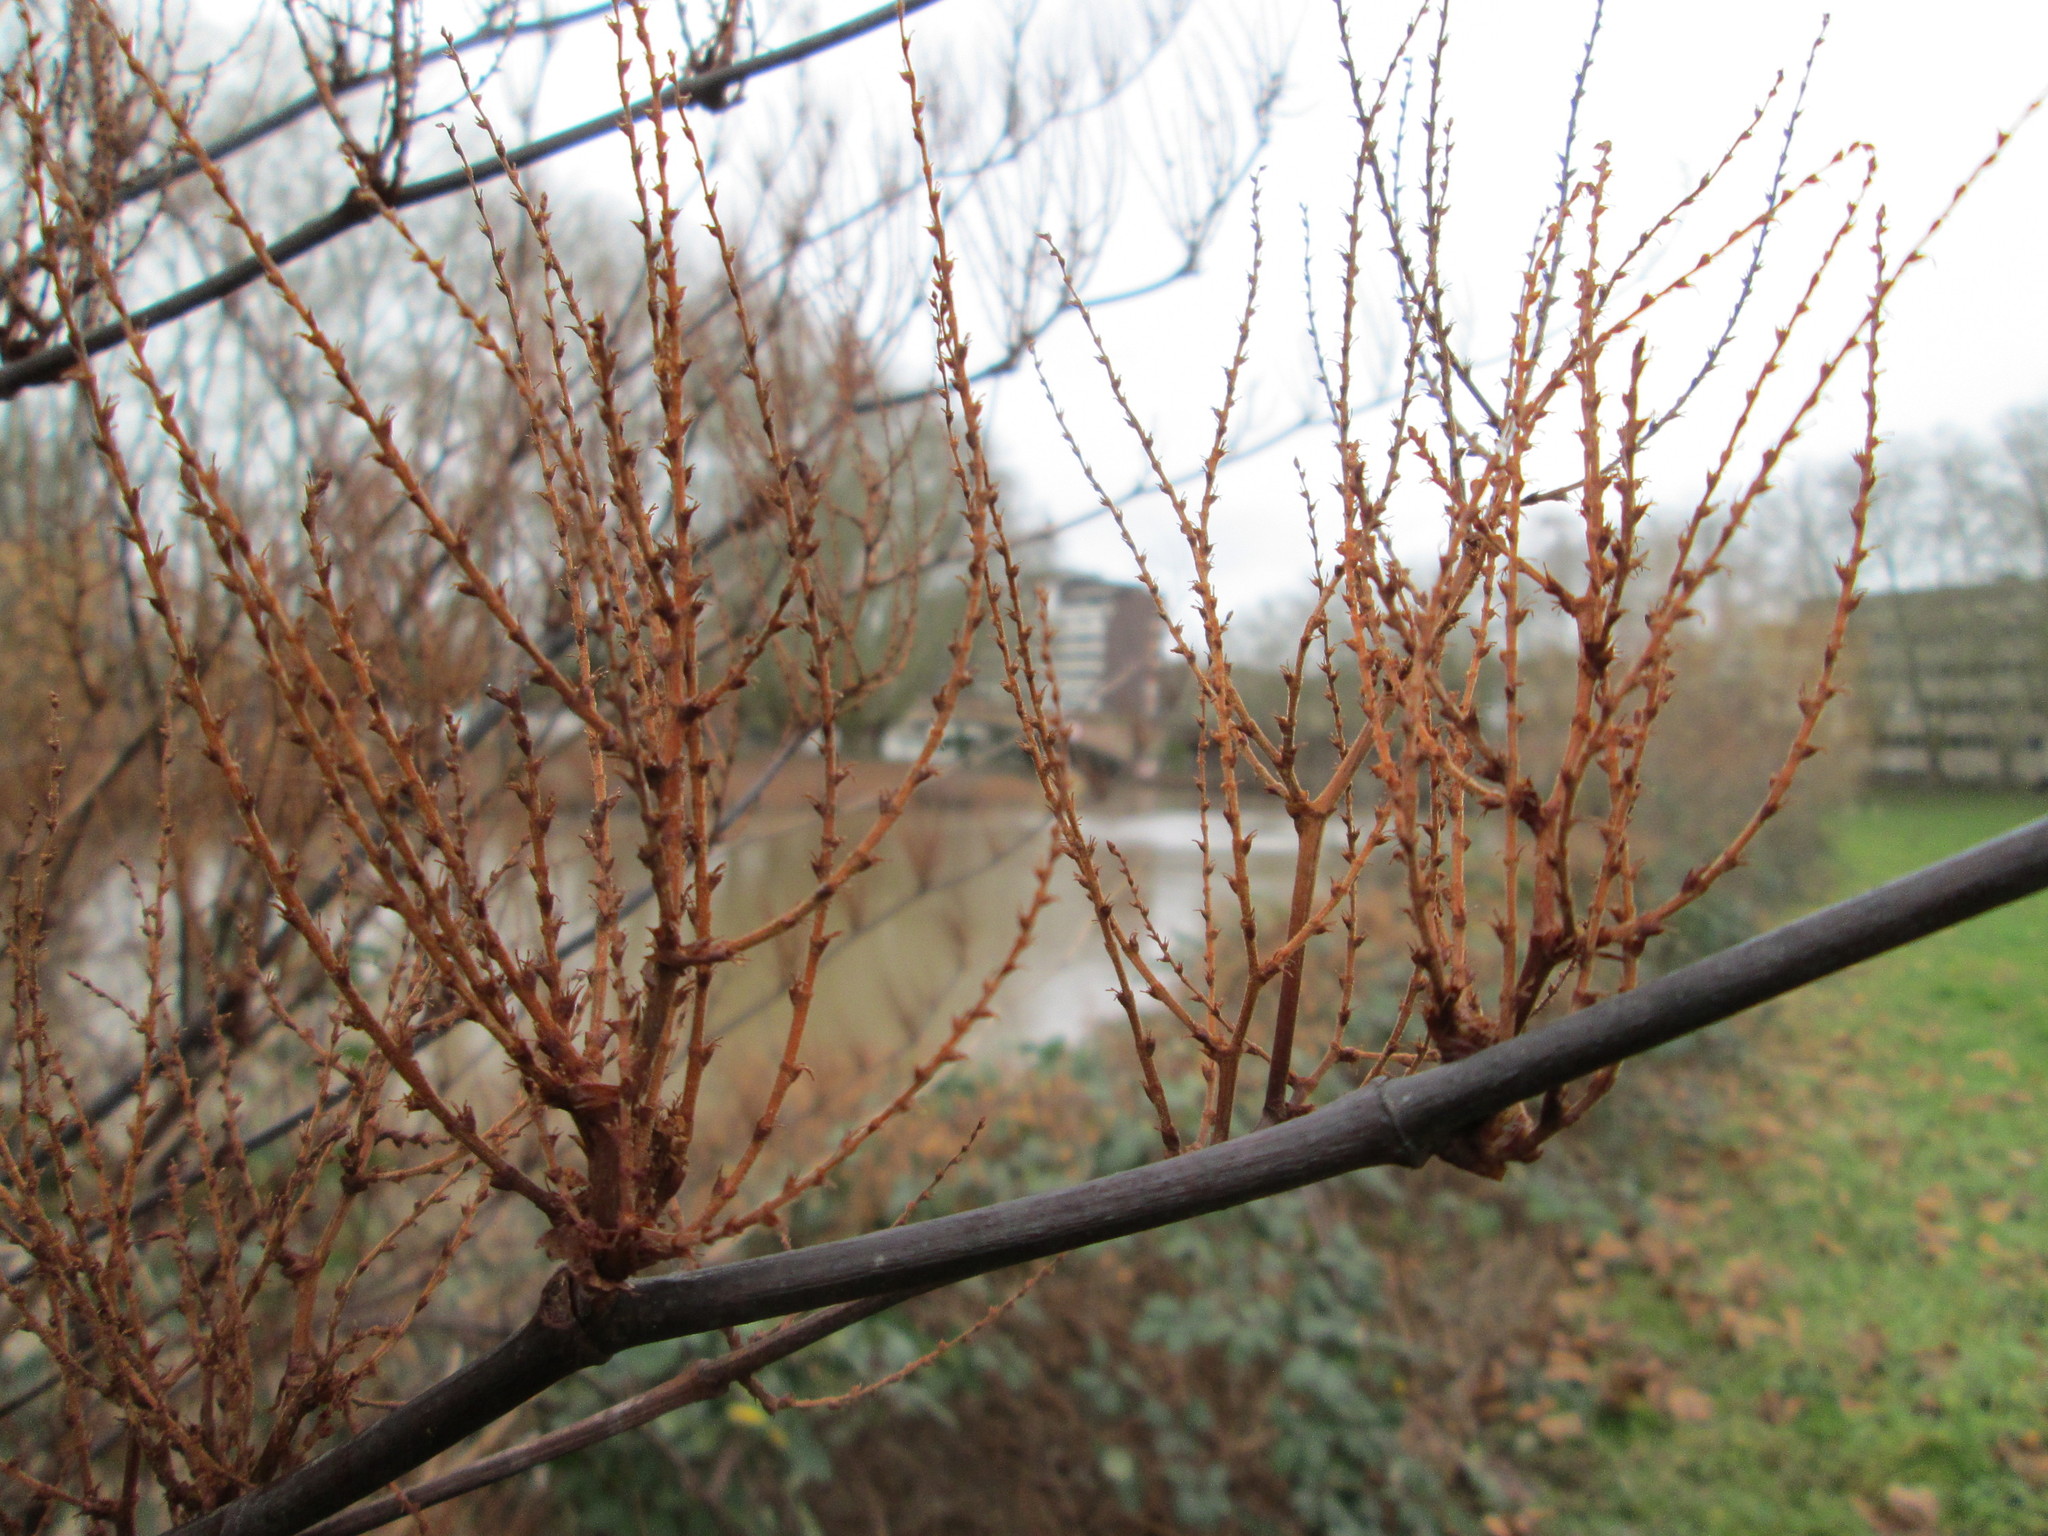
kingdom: Plantae
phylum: Tracheophyta
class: Magnoliopsida
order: Caryophyllales
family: Polygonaceae
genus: Reynoutria
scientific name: Reynoutria bohemica
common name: Bohemian knotweed
